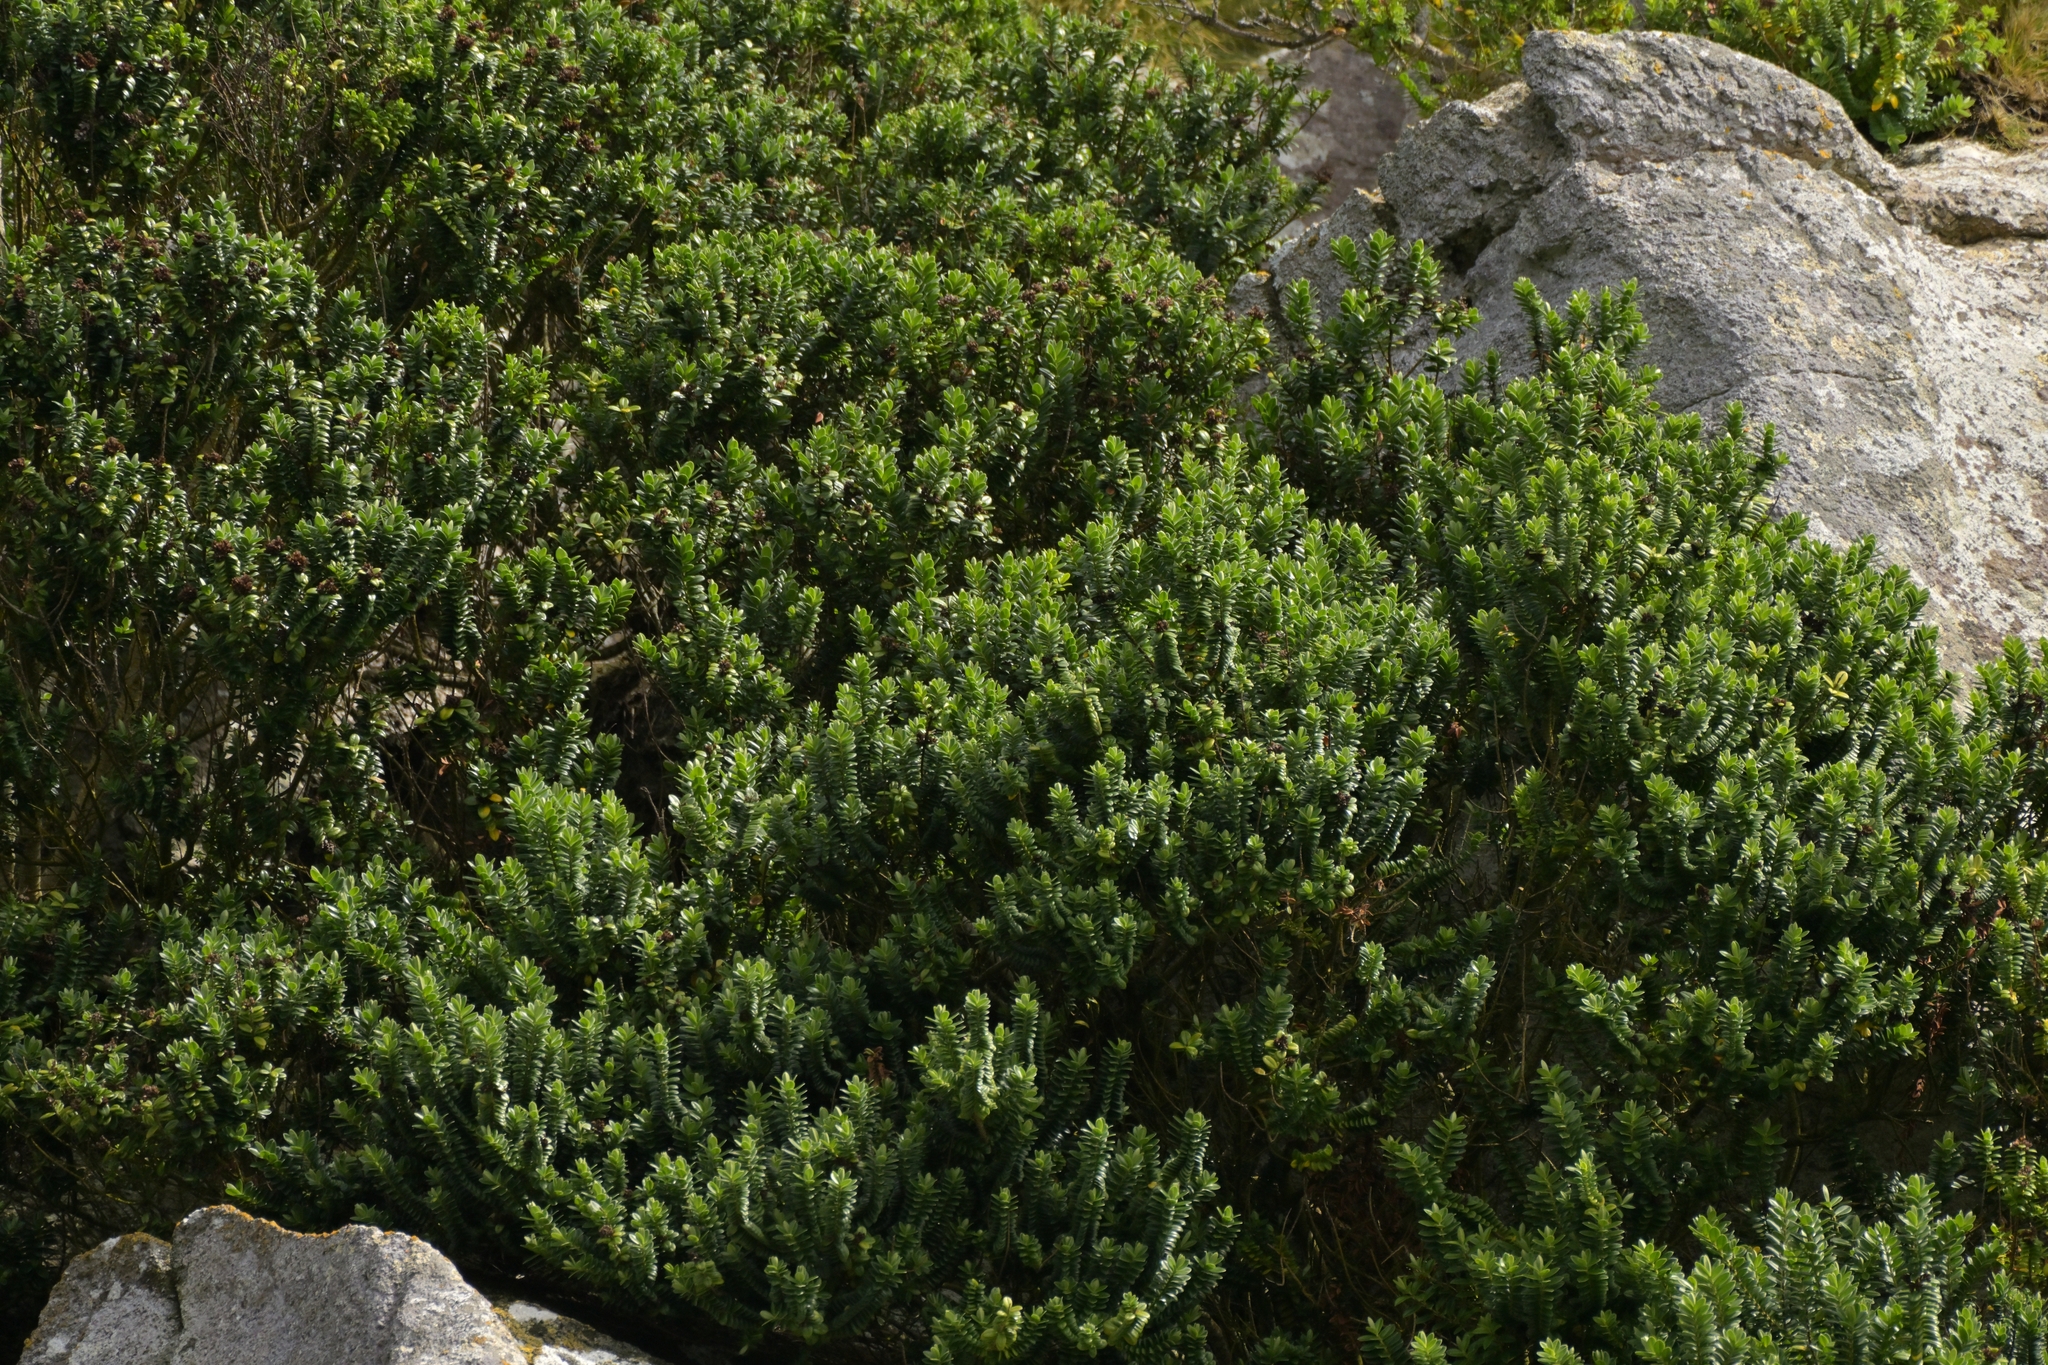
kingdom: Plantae
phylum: Tracheophyta
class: Magnoliopsida
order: Lamiales
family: Plantaginaceae
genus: Veronica
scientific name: Veronica elliptica
